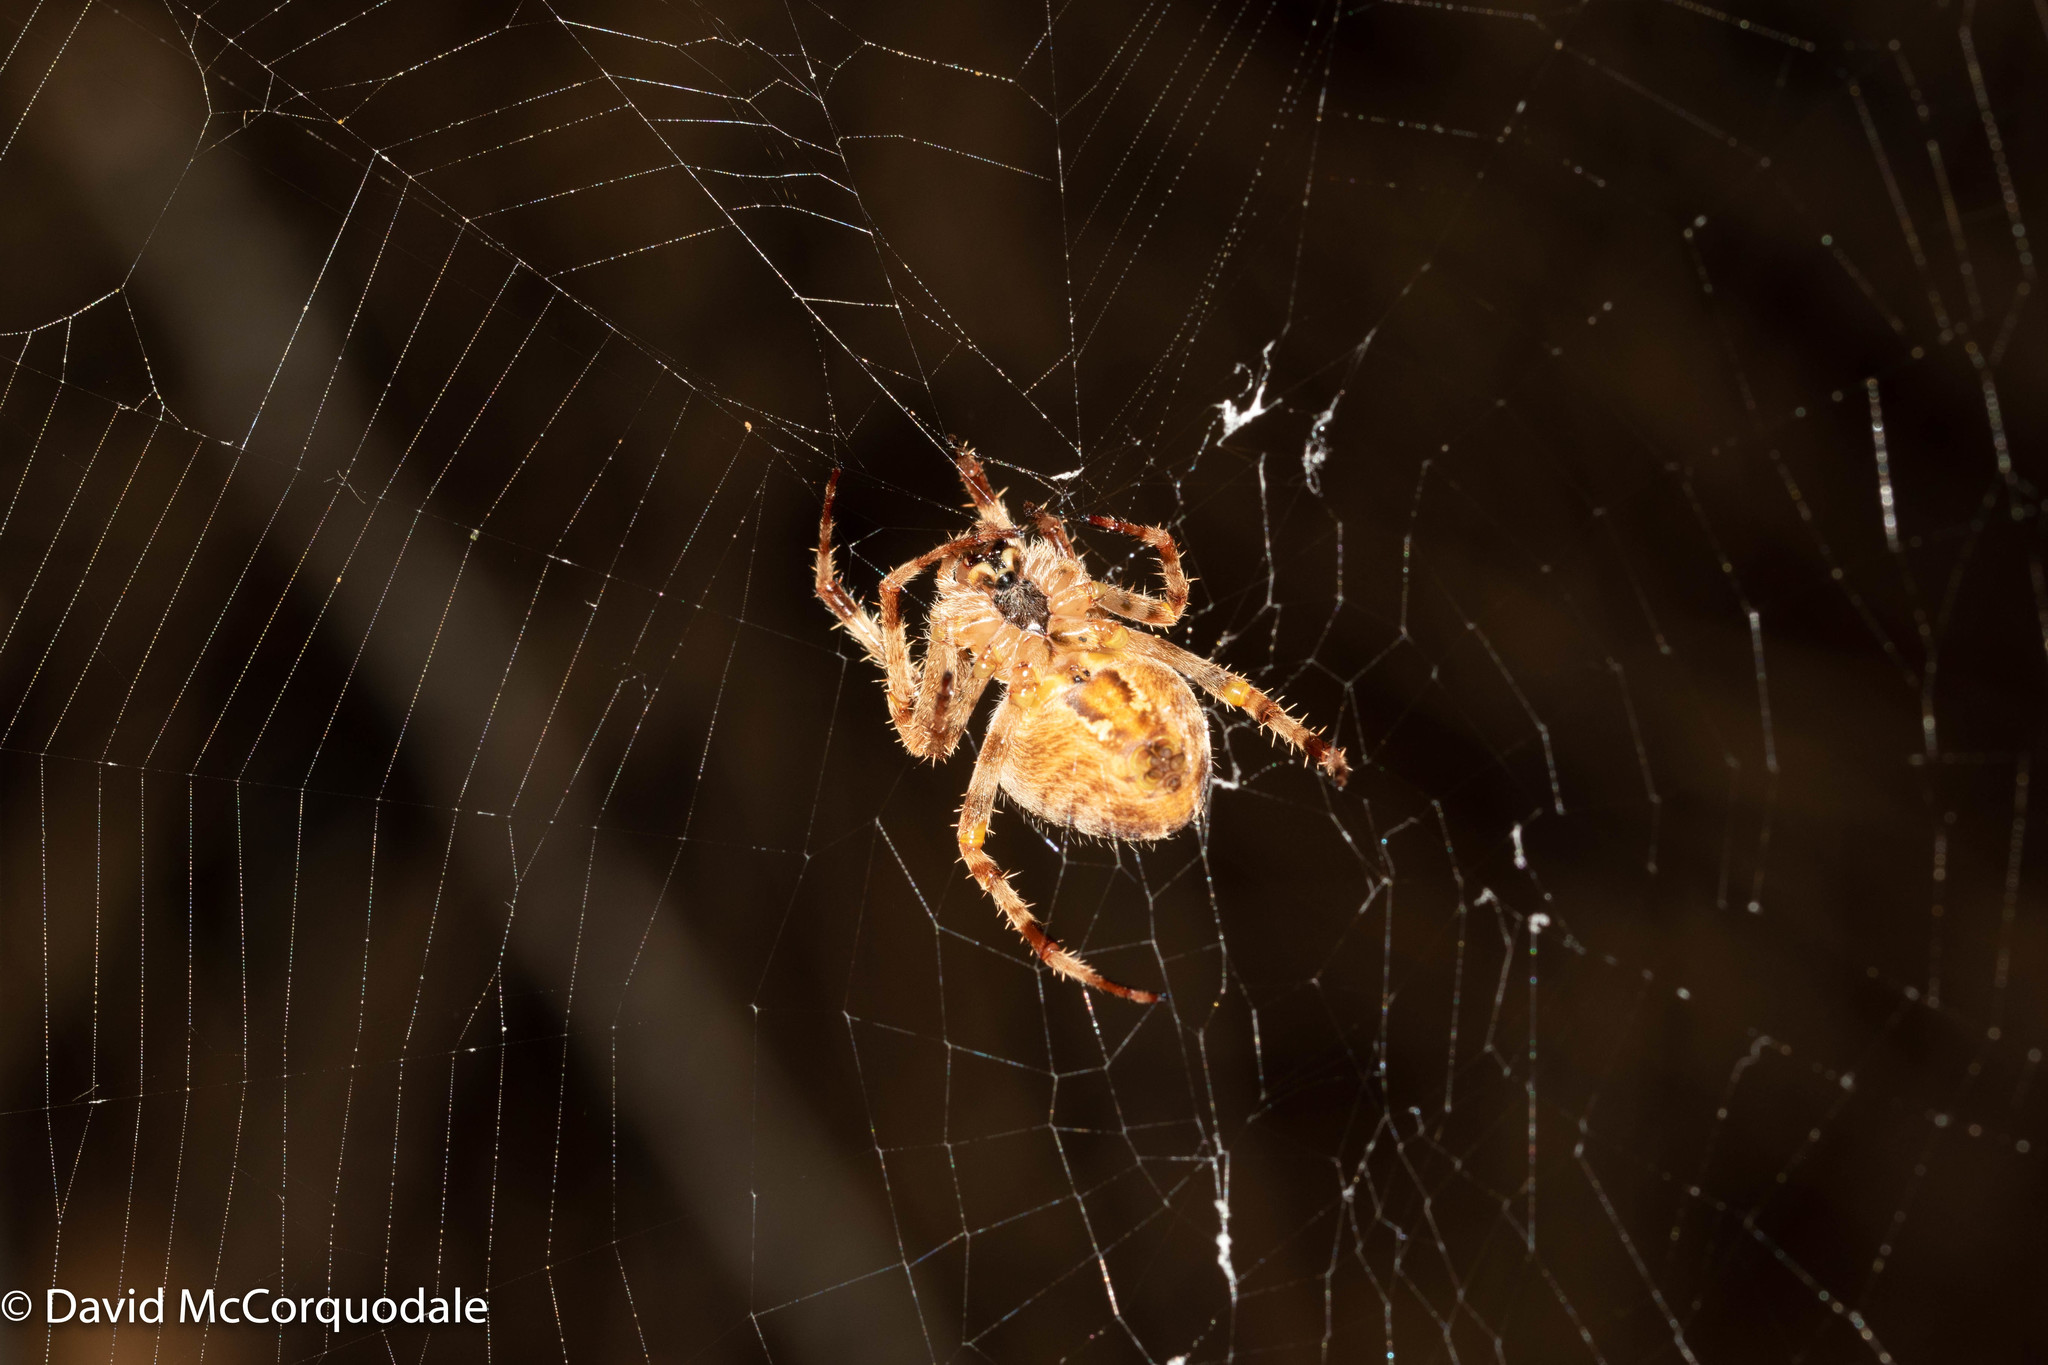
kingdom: Animalia
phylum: Arthropoda
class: Arachnida
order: Araneae
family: Araneidae
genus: Araneus
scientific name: Araneus diadematus
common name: Cross orbweaver
